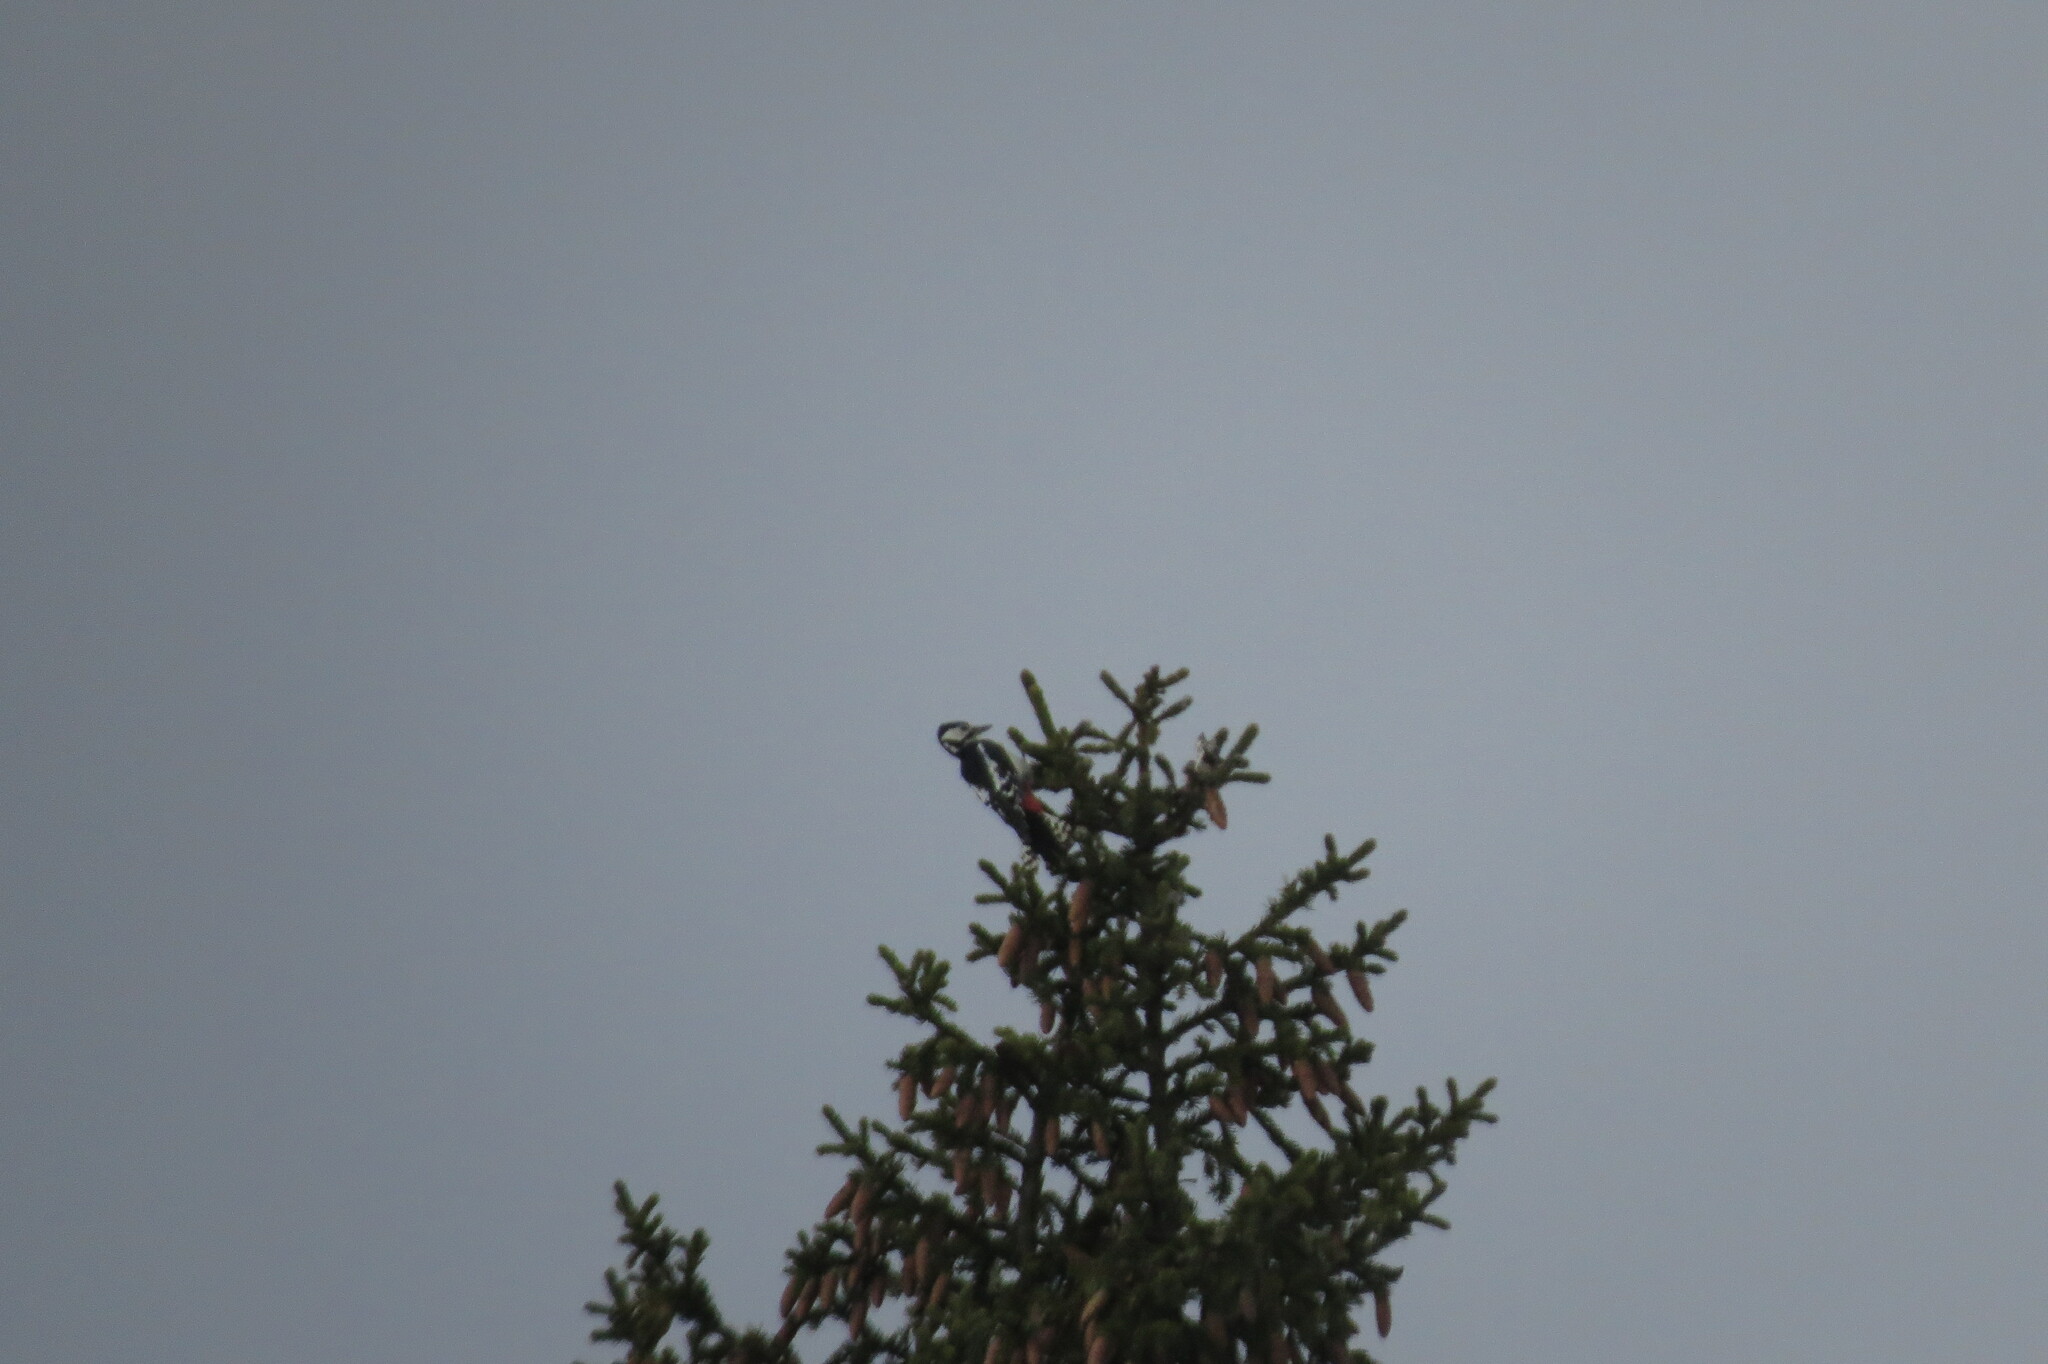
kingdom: Animalia
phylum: Chordata
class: Aves
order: Piciformes
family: Picidae
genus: Dendrocopos
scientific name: Dendrocopos major
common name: Great spotted woodpecker
